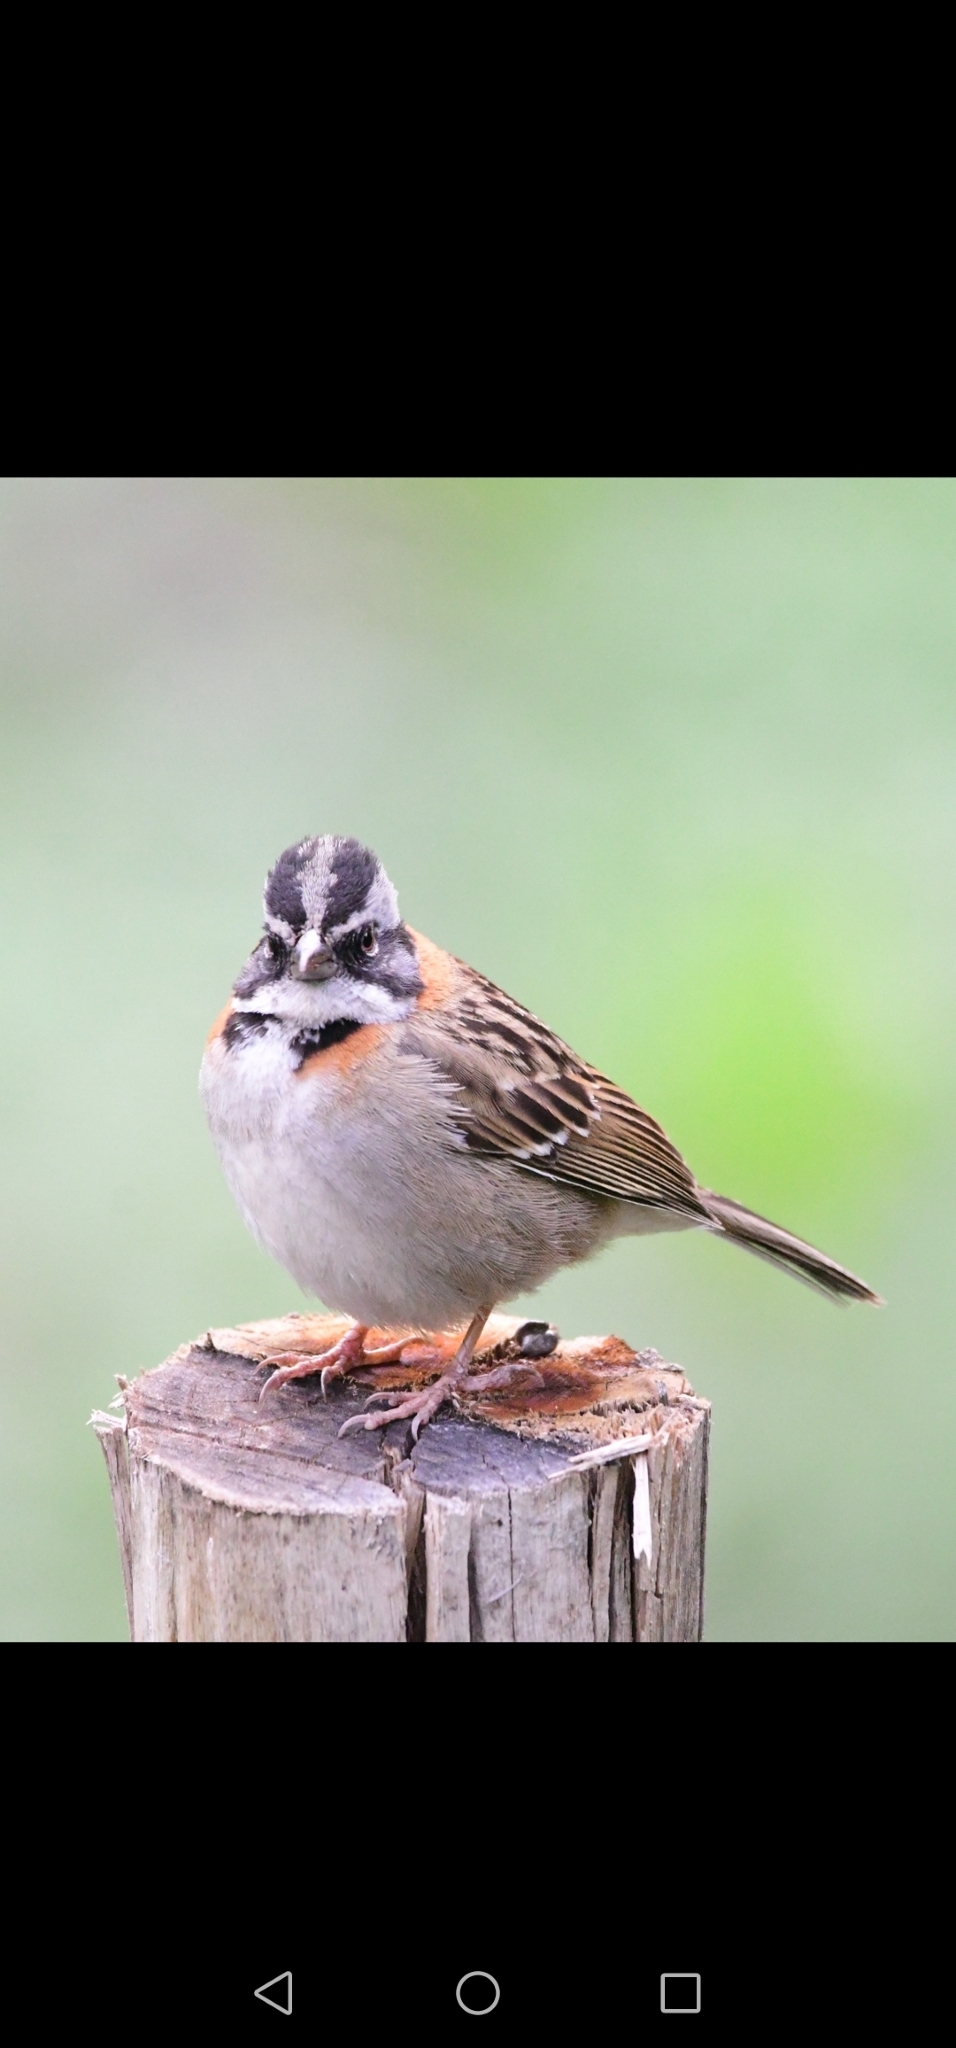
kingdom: Animalia
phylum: Chordata
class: Aves
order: Passeriformes
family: Passerellidae
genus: Zonotrichia
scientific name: Zonotrichia capensis
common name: Rufous-collared sparrow
